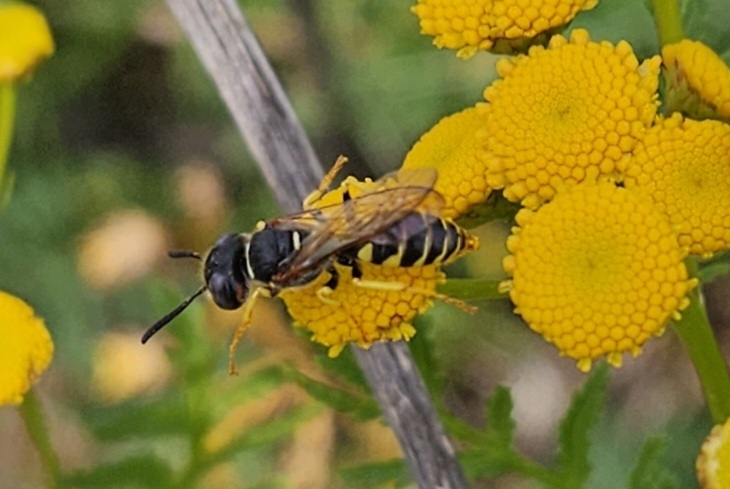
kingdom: Animalia
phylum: Arthropoda
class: Insecta
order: Hymenoptera
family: Crabronidae
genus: Philanthus
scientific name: Philanthus triangulum
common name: Bee wolf
